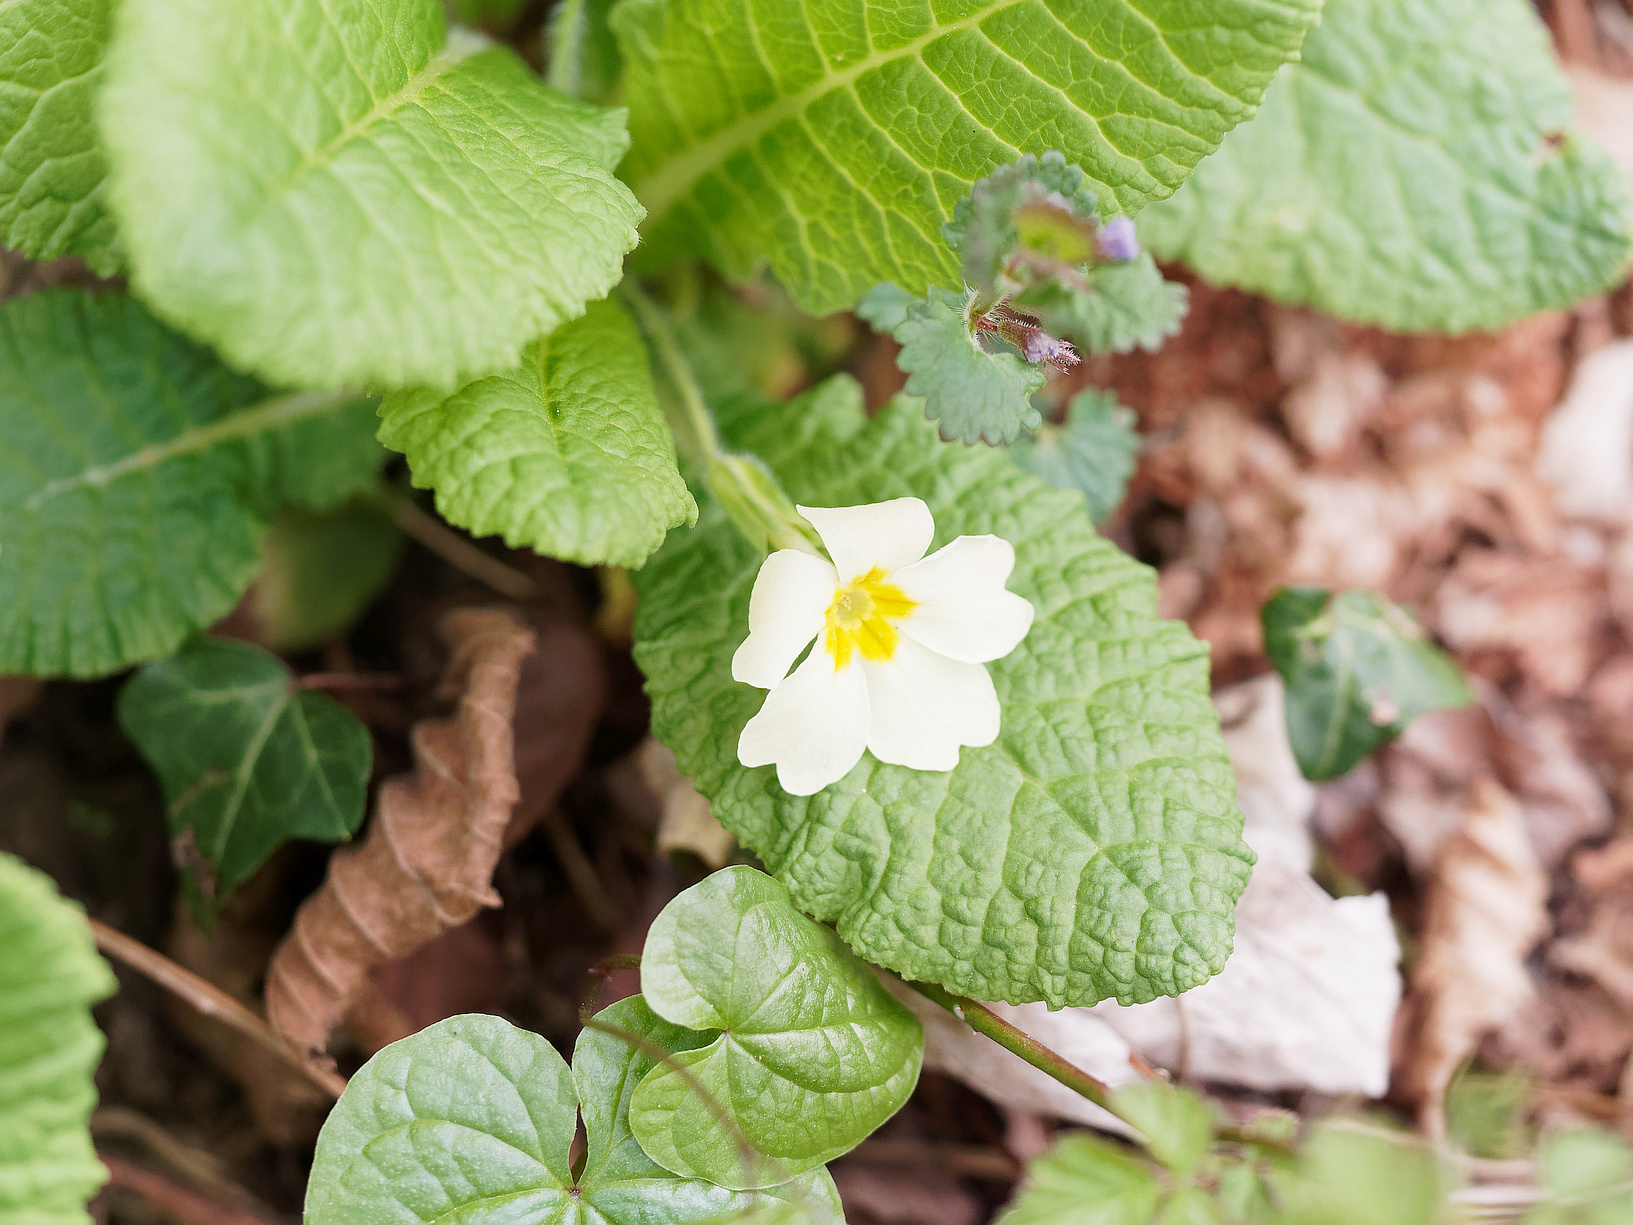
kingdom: Plantae
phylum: Tracheophyta
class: Magnoliopsida
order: Ericales
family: Primulaceae
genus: Primula
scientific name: Primula vulgaris
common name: Primrose
